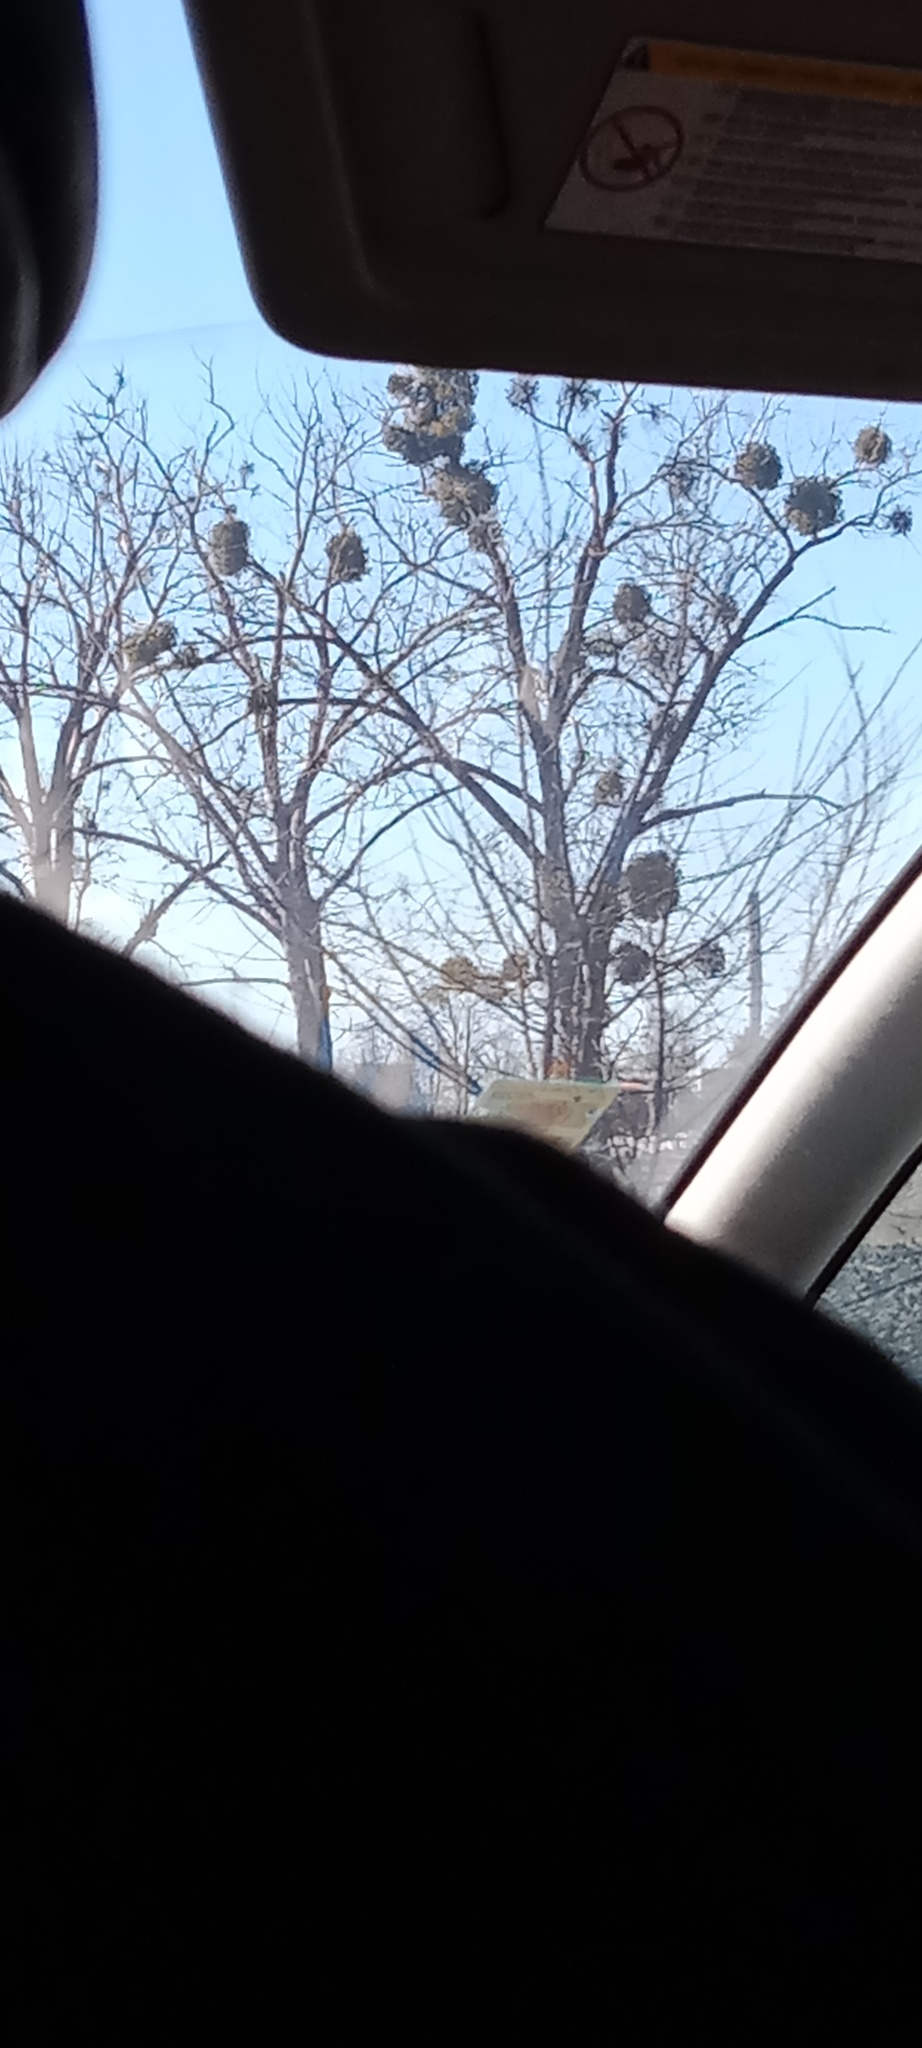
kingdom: Plantae
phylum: Tracheophyta
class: Magnoliopsida
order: Santalales
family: Viscaceae
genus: Viscum
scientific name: Viscum album
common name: Mistletoe
